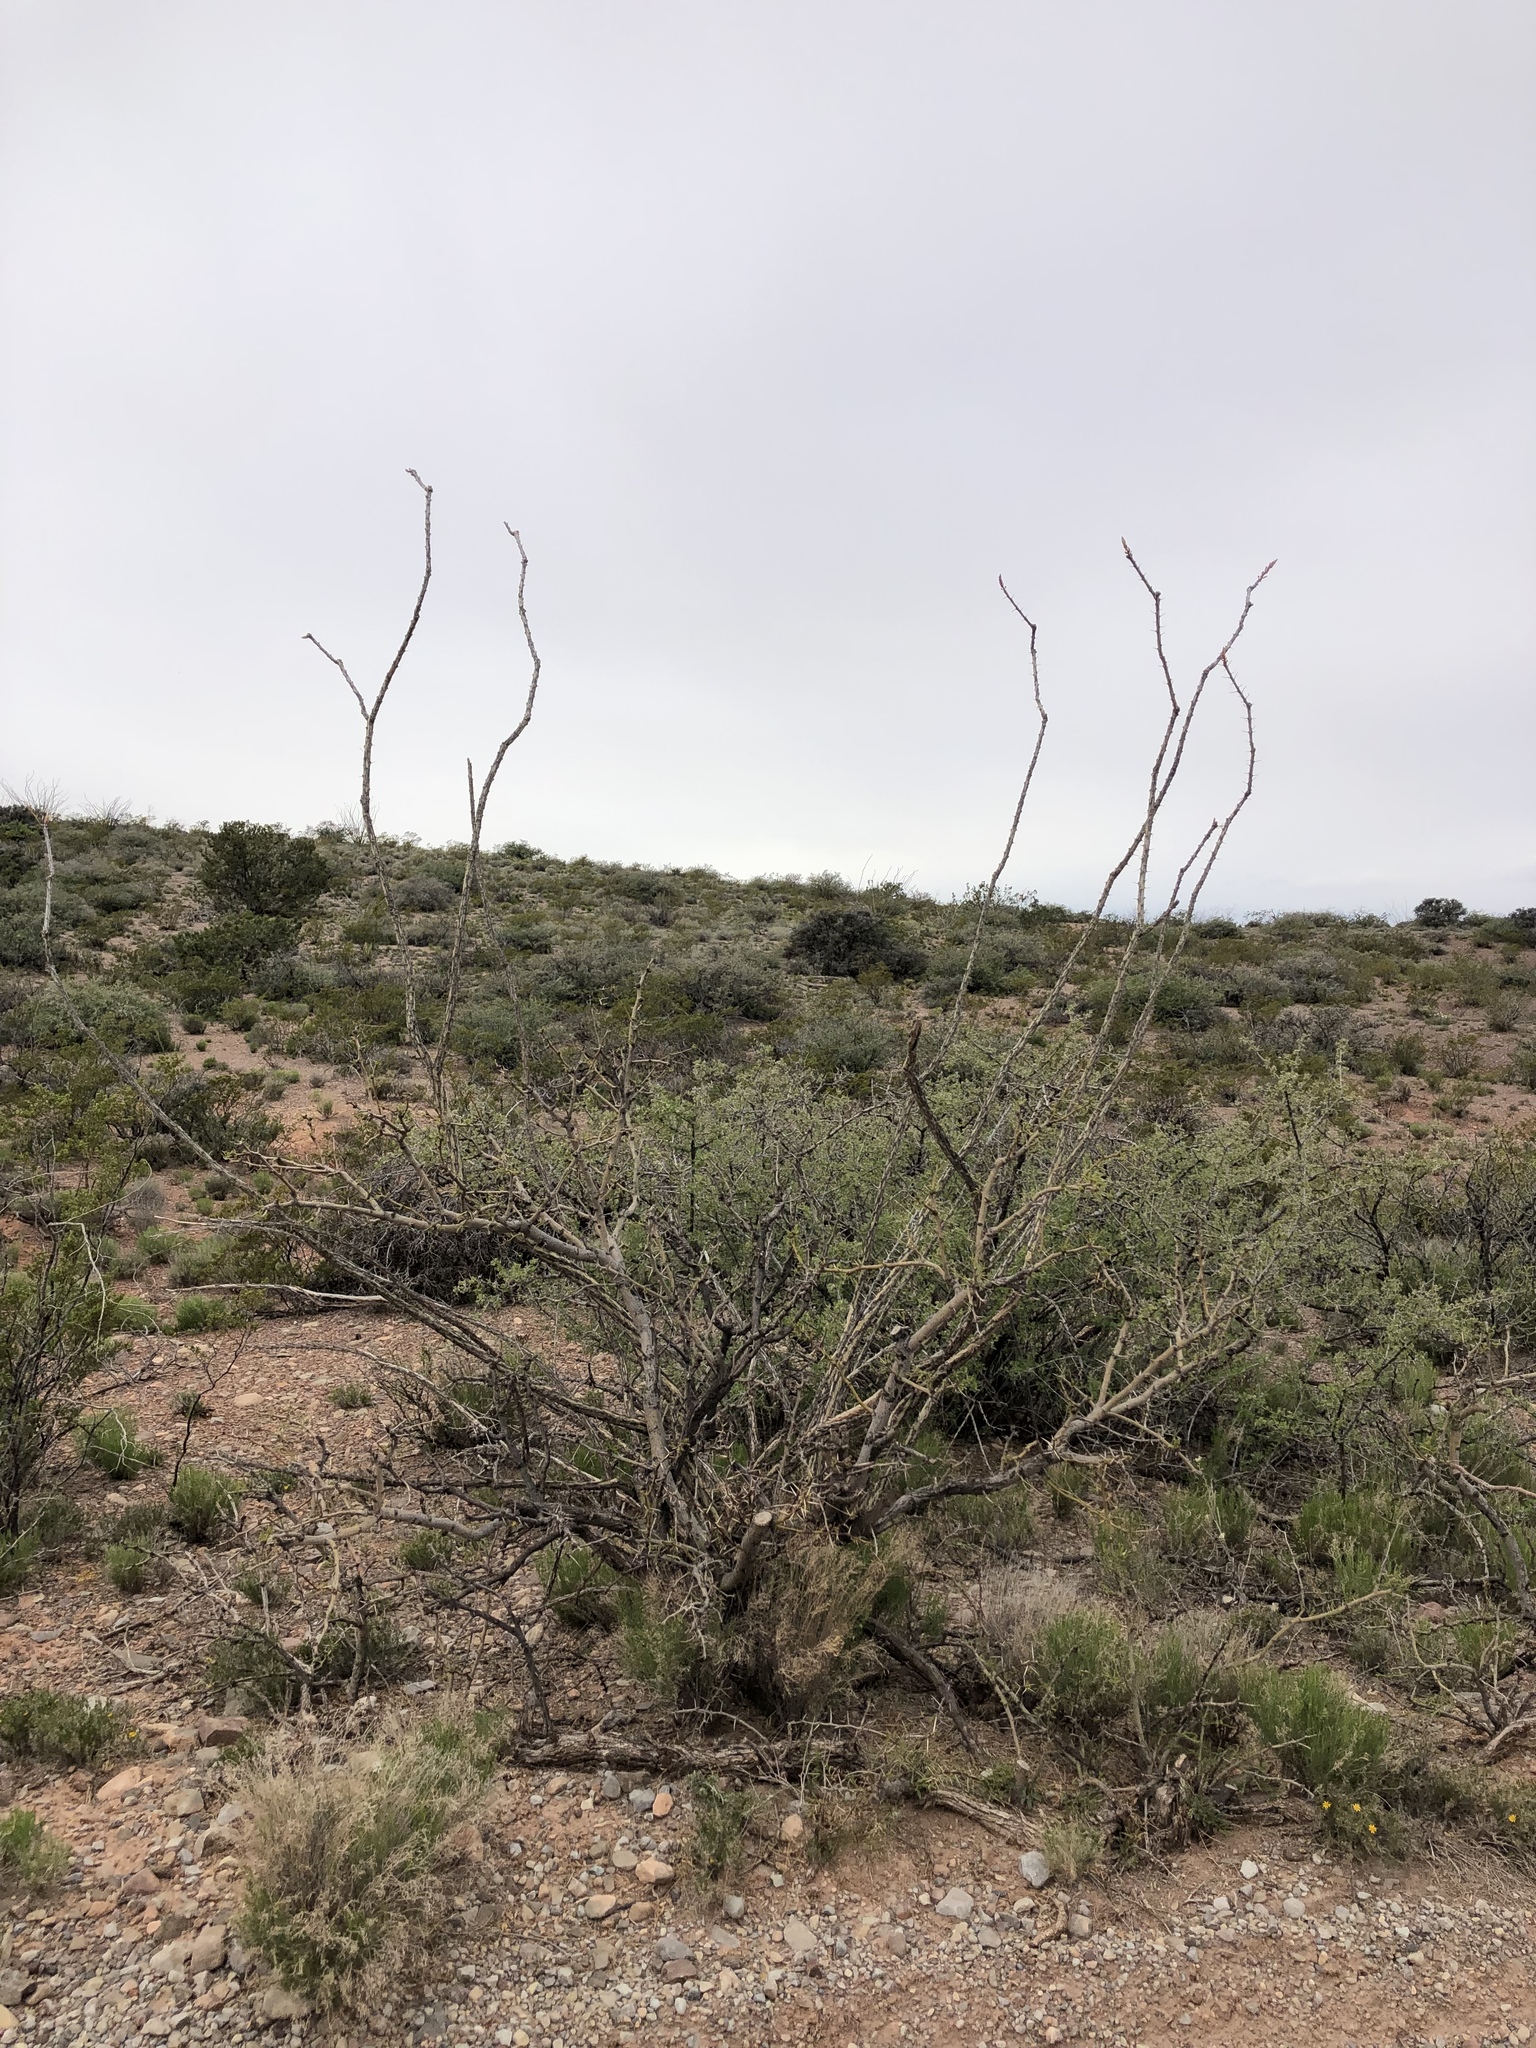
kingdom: Plantae
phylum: Tracheophyta
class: Magnoliopsida
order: Ericales
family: Fouquieriaceae
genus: Fouquieria
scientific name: Fouquieria splendens
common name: Vine-cactus
